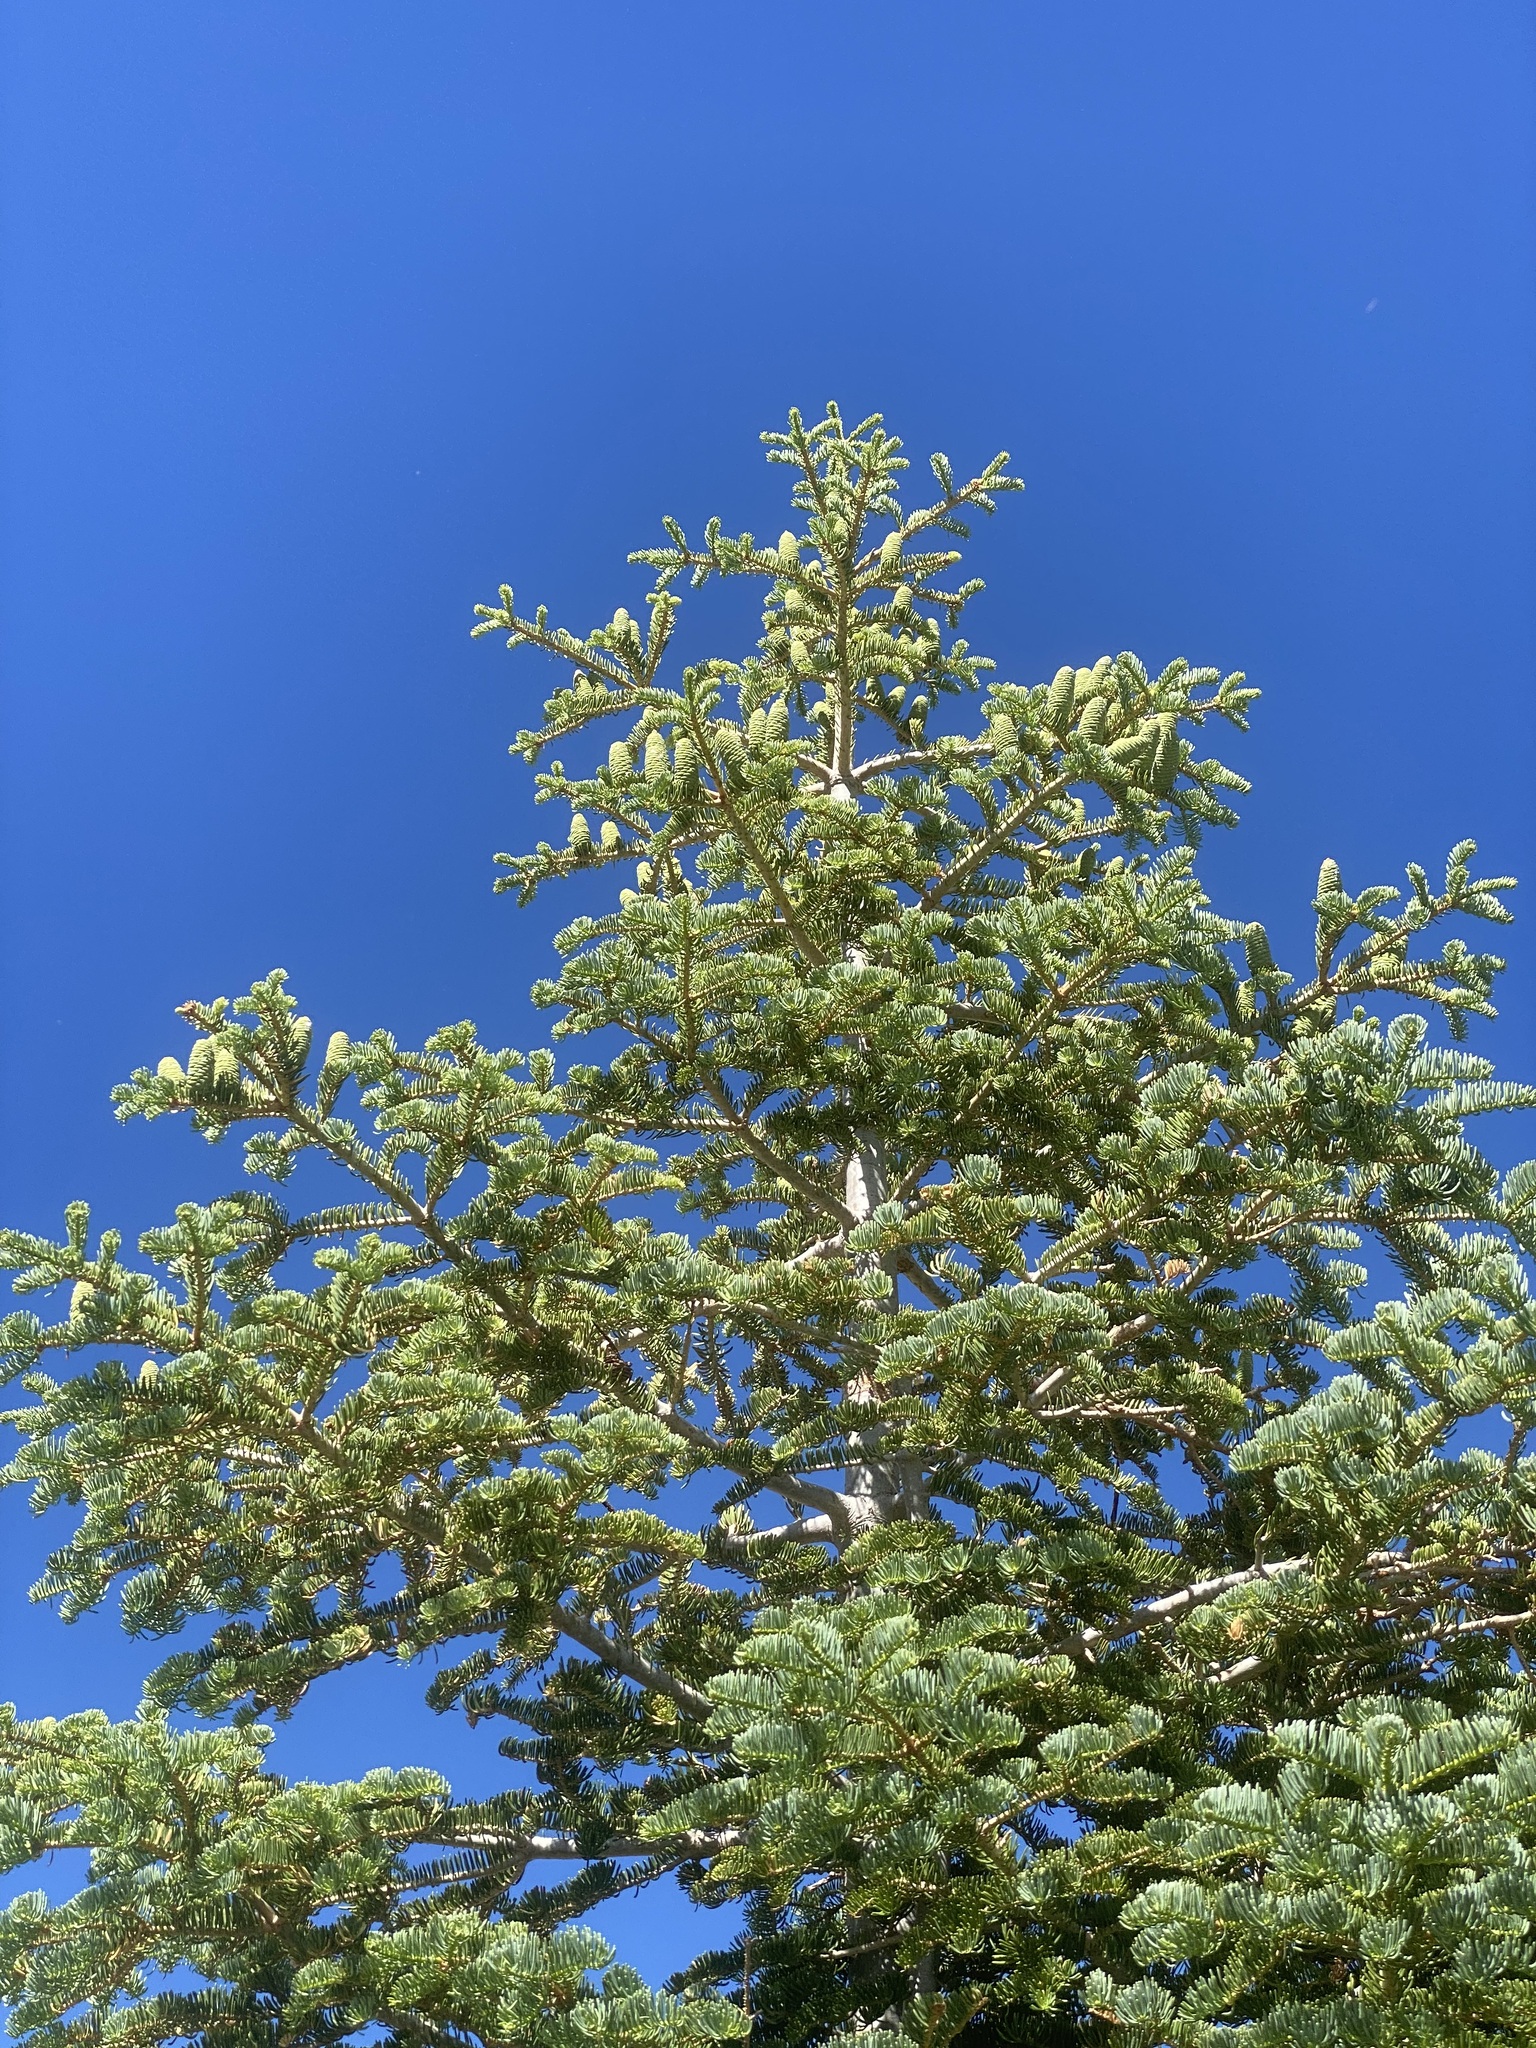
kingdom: Plantae
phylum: Tracheophyta
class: Pinopsida
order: Pinales
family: Pinaceae
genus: Abies
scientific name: Abies concolor
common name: Colorado fir
